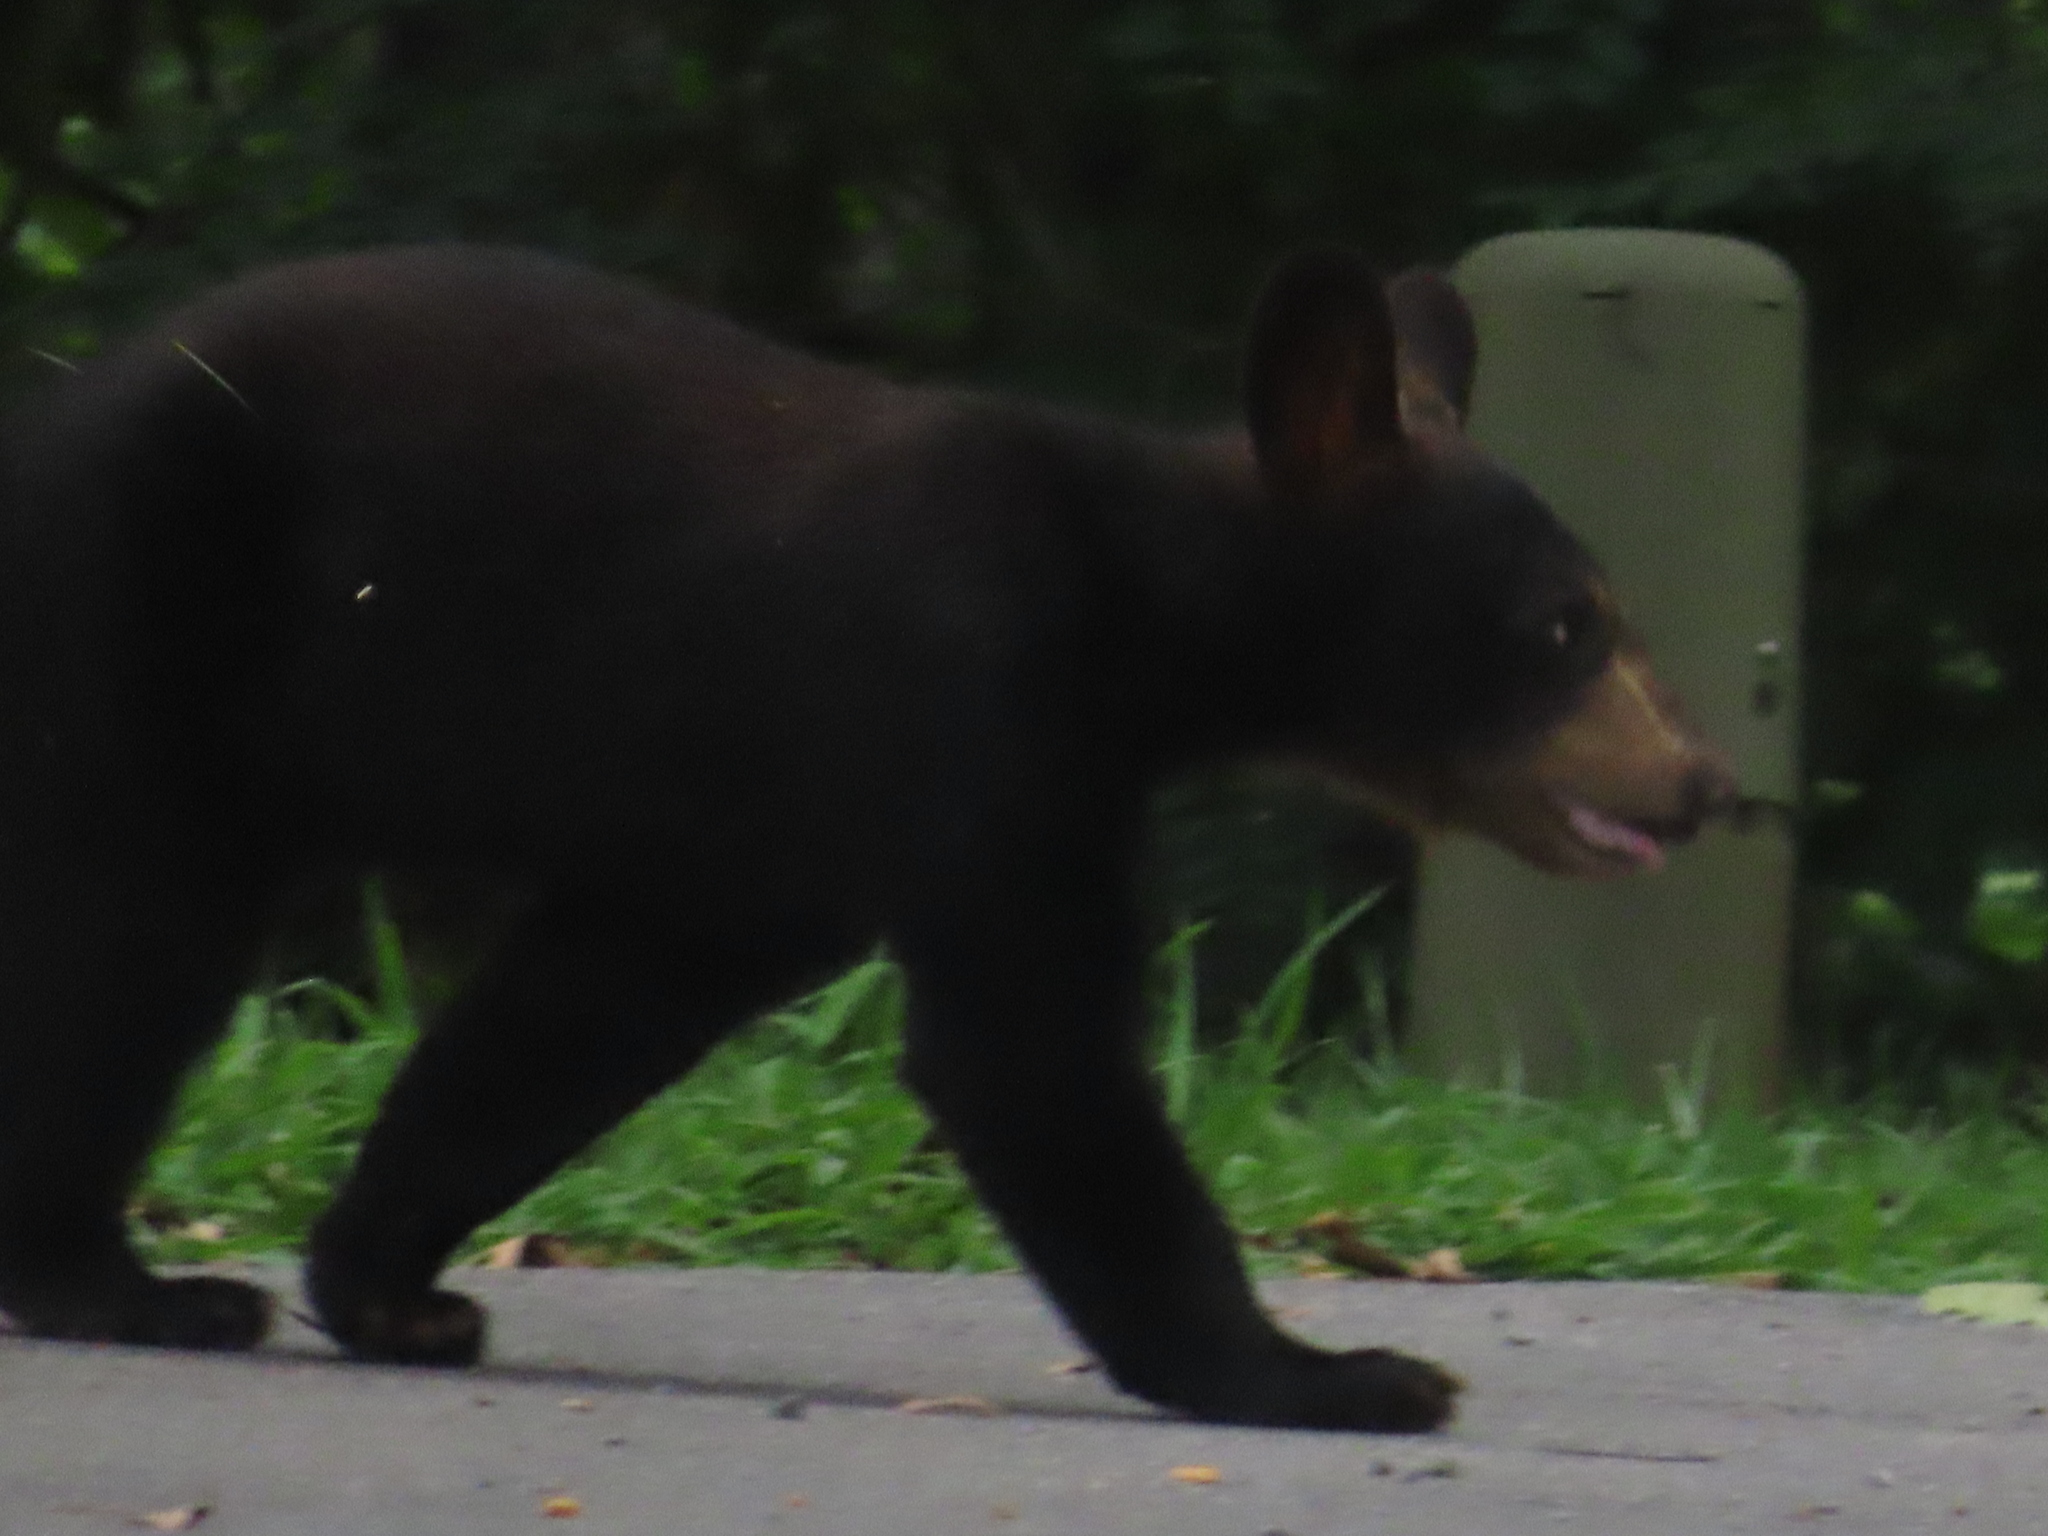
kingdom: Animalia
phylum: Chordata
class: Mammalia
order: Carnivora
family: Ursidae
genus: Ursus
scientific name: Ursus americanus
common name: American black bear
